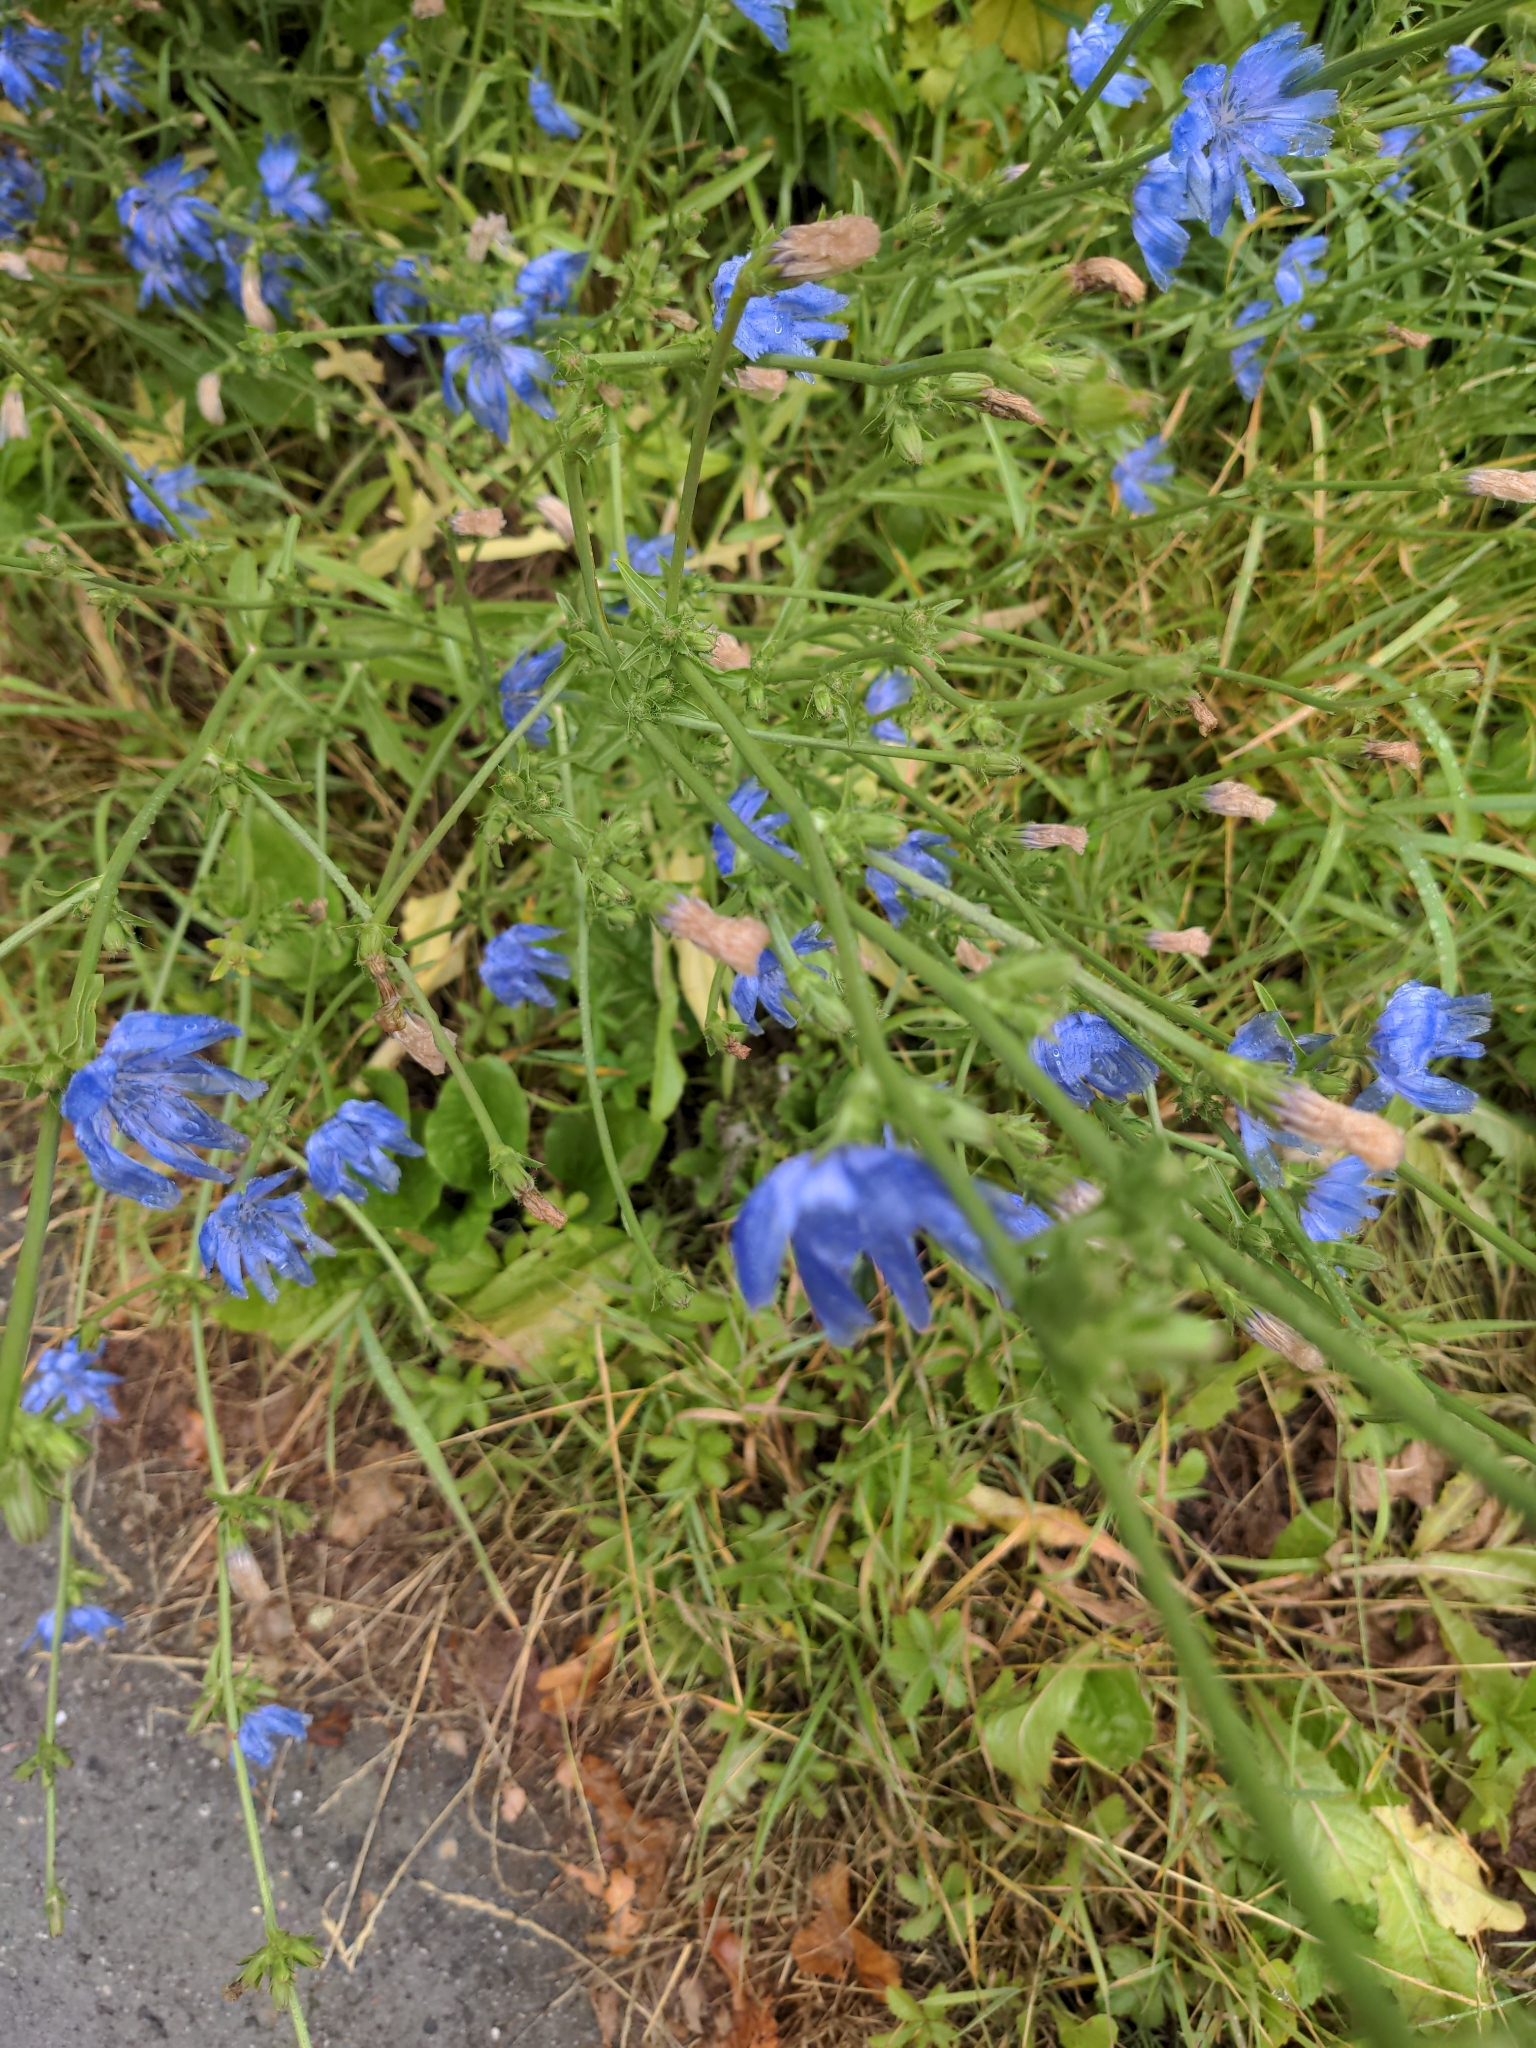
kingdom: Plantae
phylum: Tracheophyta
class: Magnoliopsida
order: Asterales
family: Asteraceae
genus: Cichorium
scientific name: Cichorium intybus
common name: Chicory
